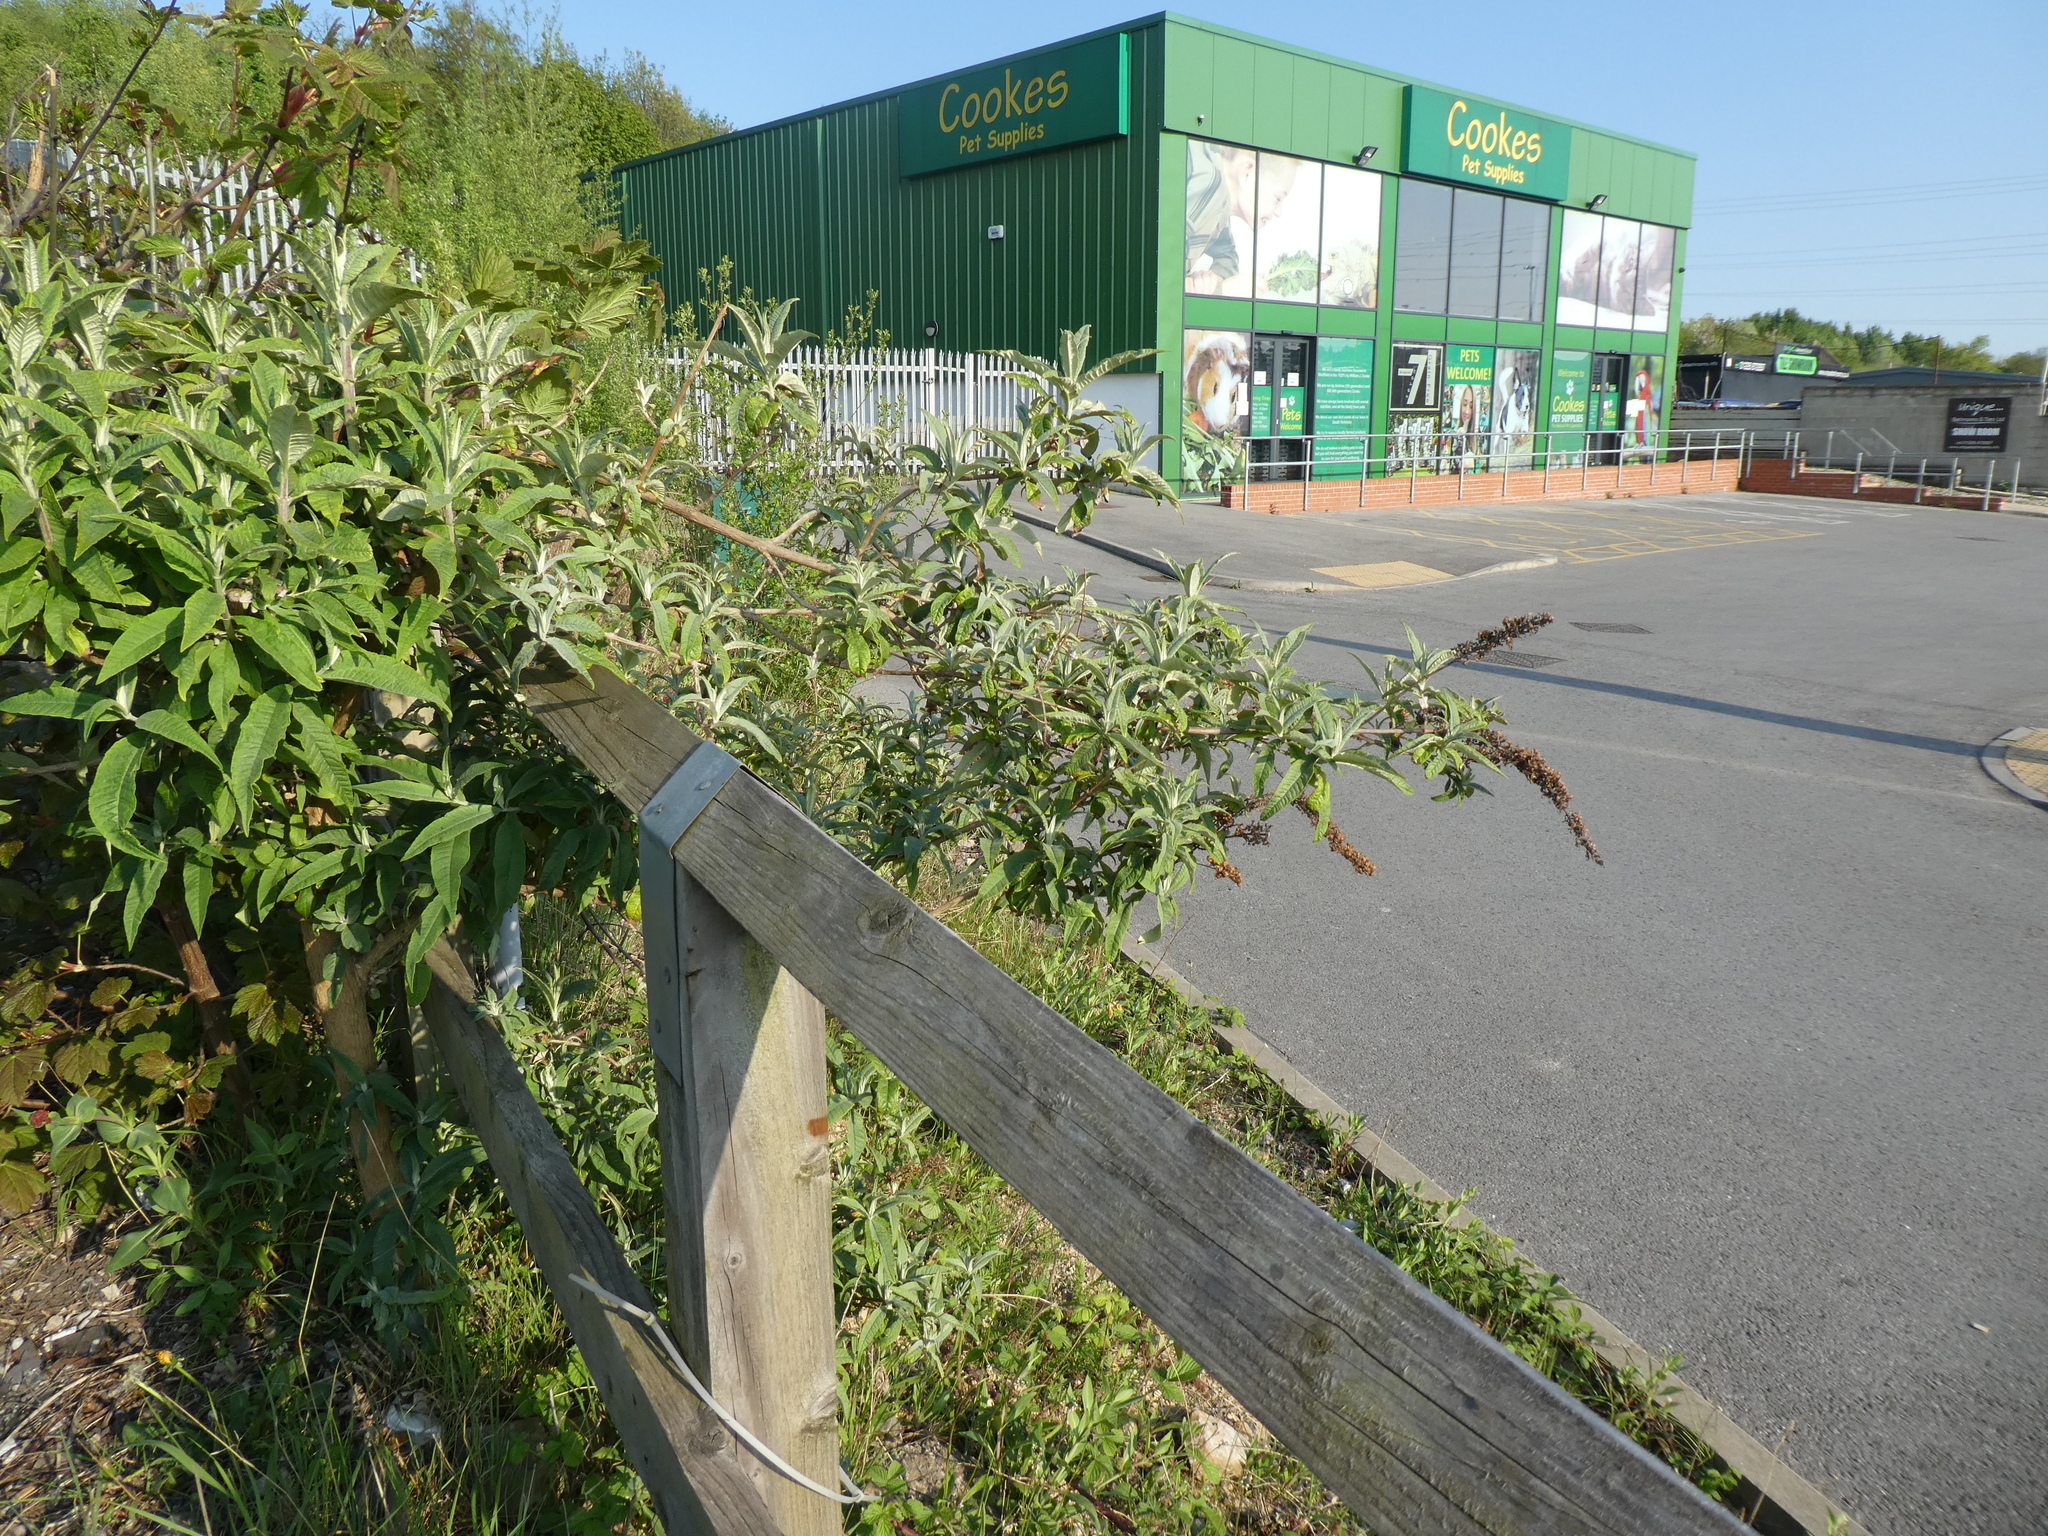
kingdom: Plantae
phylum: Tracheophyta
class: Magnoliopsida
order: Lamiales
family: Scrophulariaceae
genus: Buddleja
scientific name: Buddleja davidii
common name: Butterfly-bush
